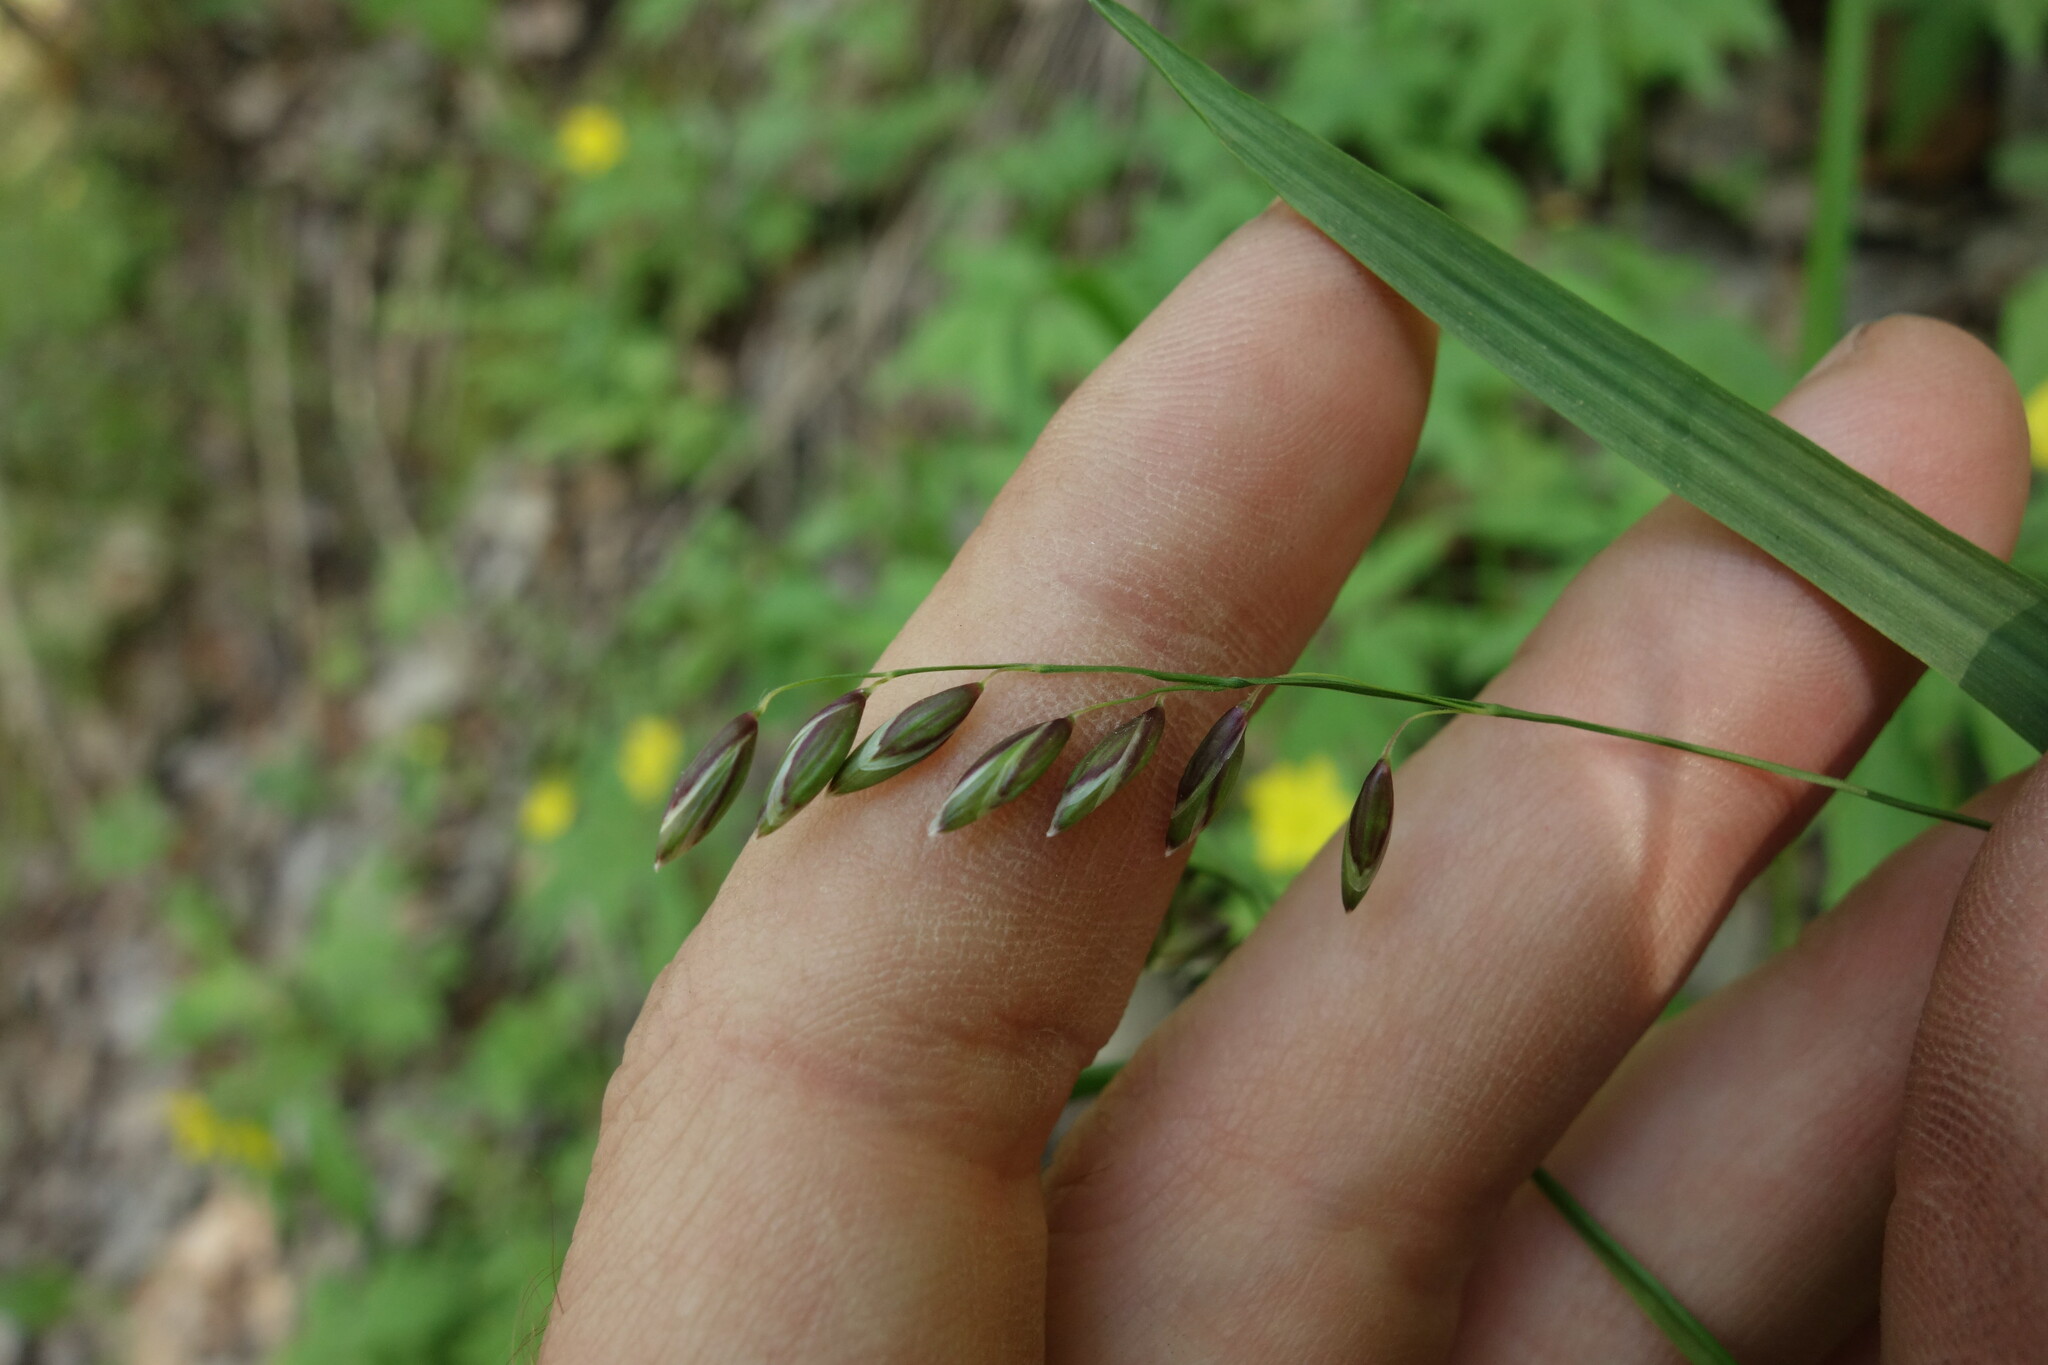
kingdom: Plantae
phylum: Tracheophyta
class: Liliopsida
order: Poales
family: Poaceae
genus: Melica
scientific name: Melica nutans
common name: Mountain melick
